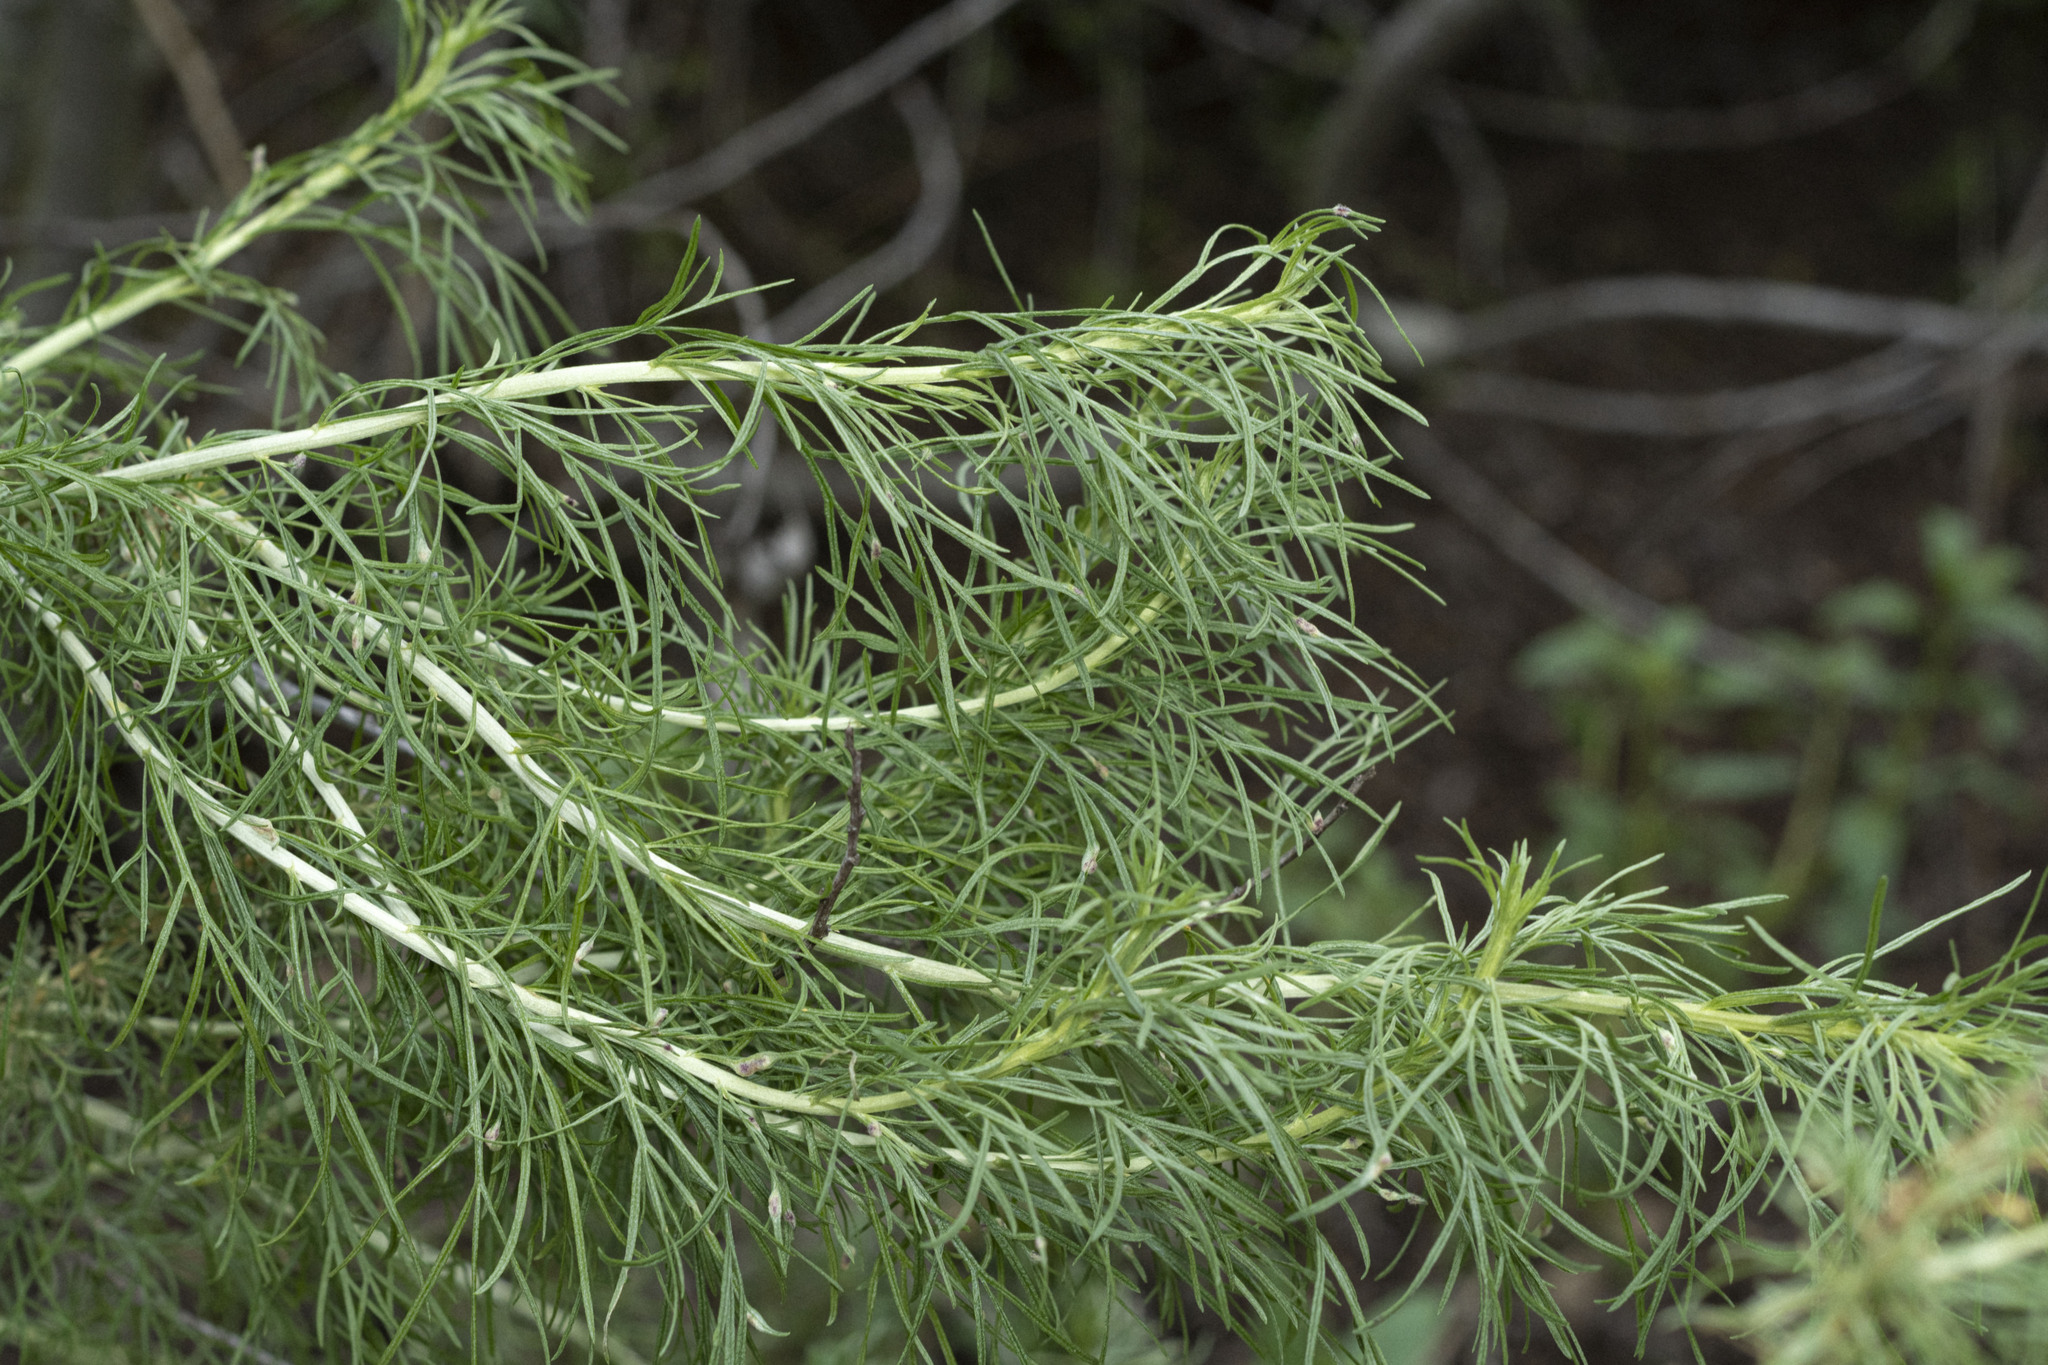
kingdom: Plantae
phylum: Tracheophyta
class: Magnoliopsida
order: Asterales
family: Asteraceae
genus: Artemisia
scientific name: Artemisia californica
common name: California sagebrush
